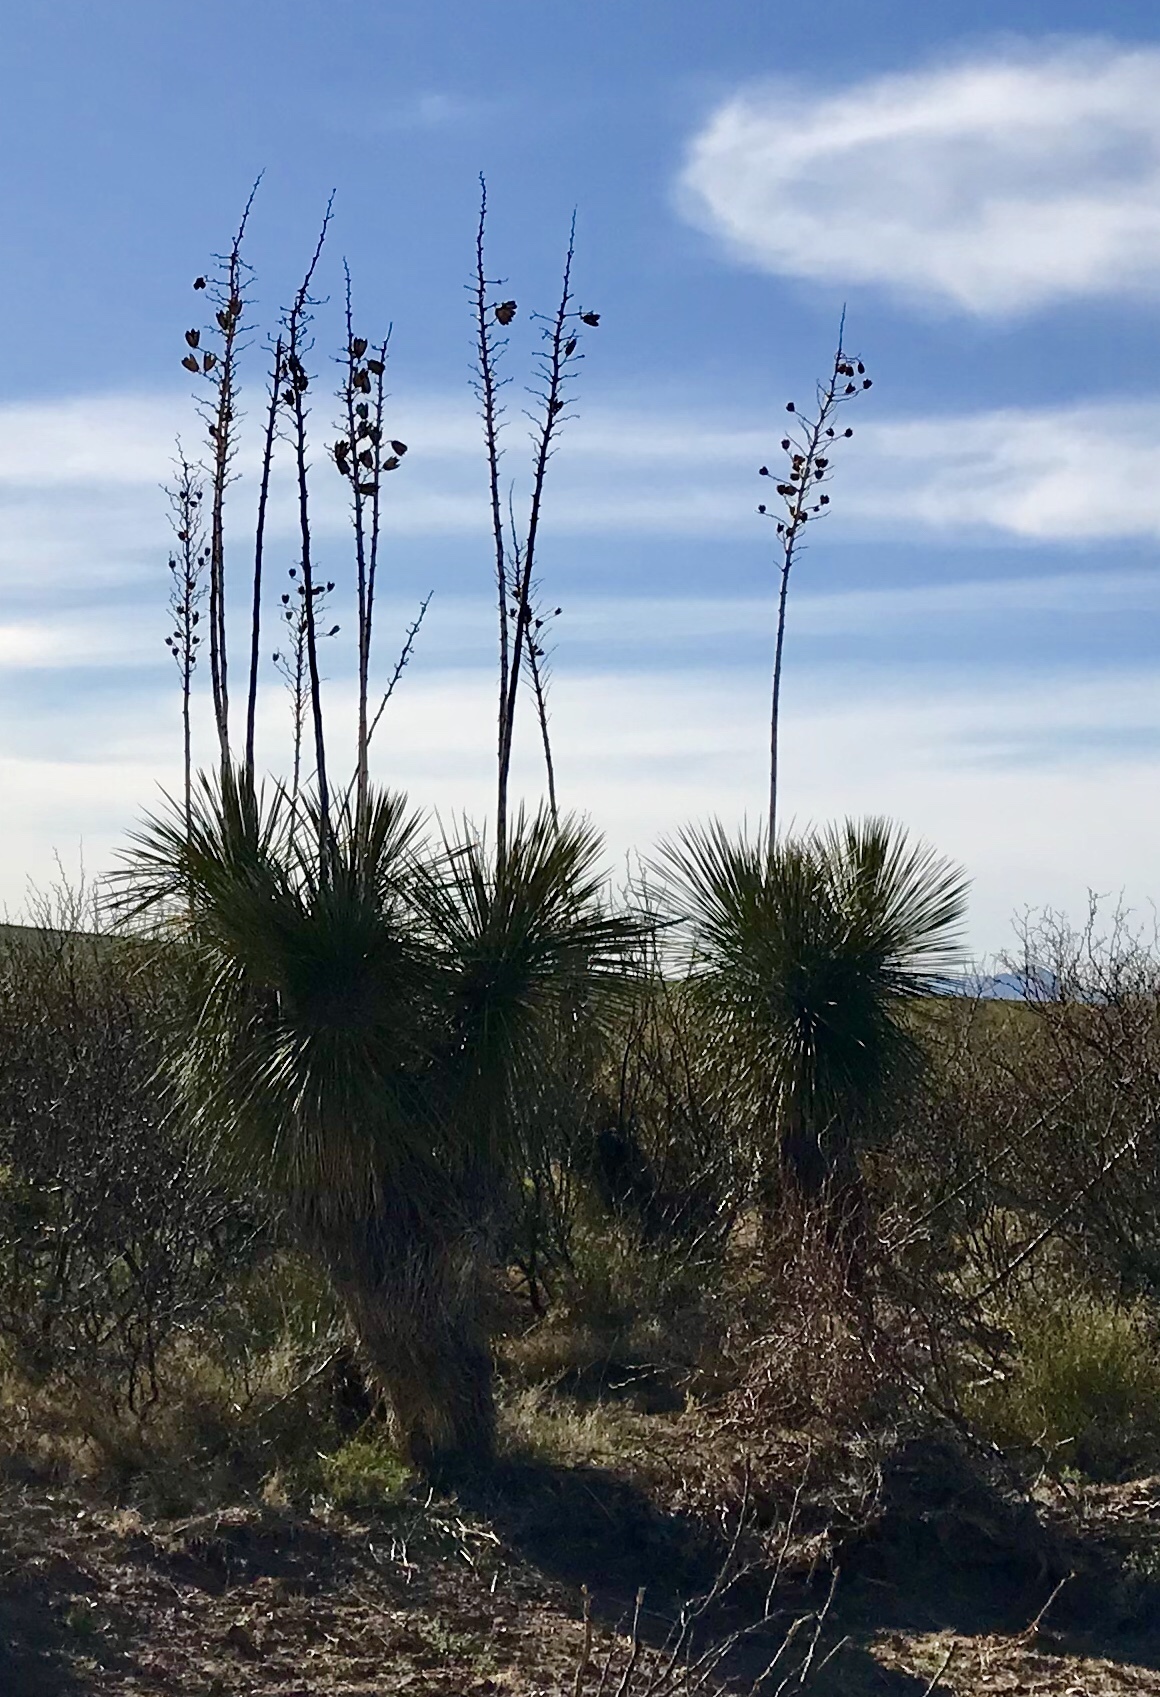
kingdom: Plantae
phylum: Tracheophyta
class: Liliopsida
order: Asparagales
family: Asparagaceae
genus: Yucca
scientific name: Yucca elata
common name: Palmella
